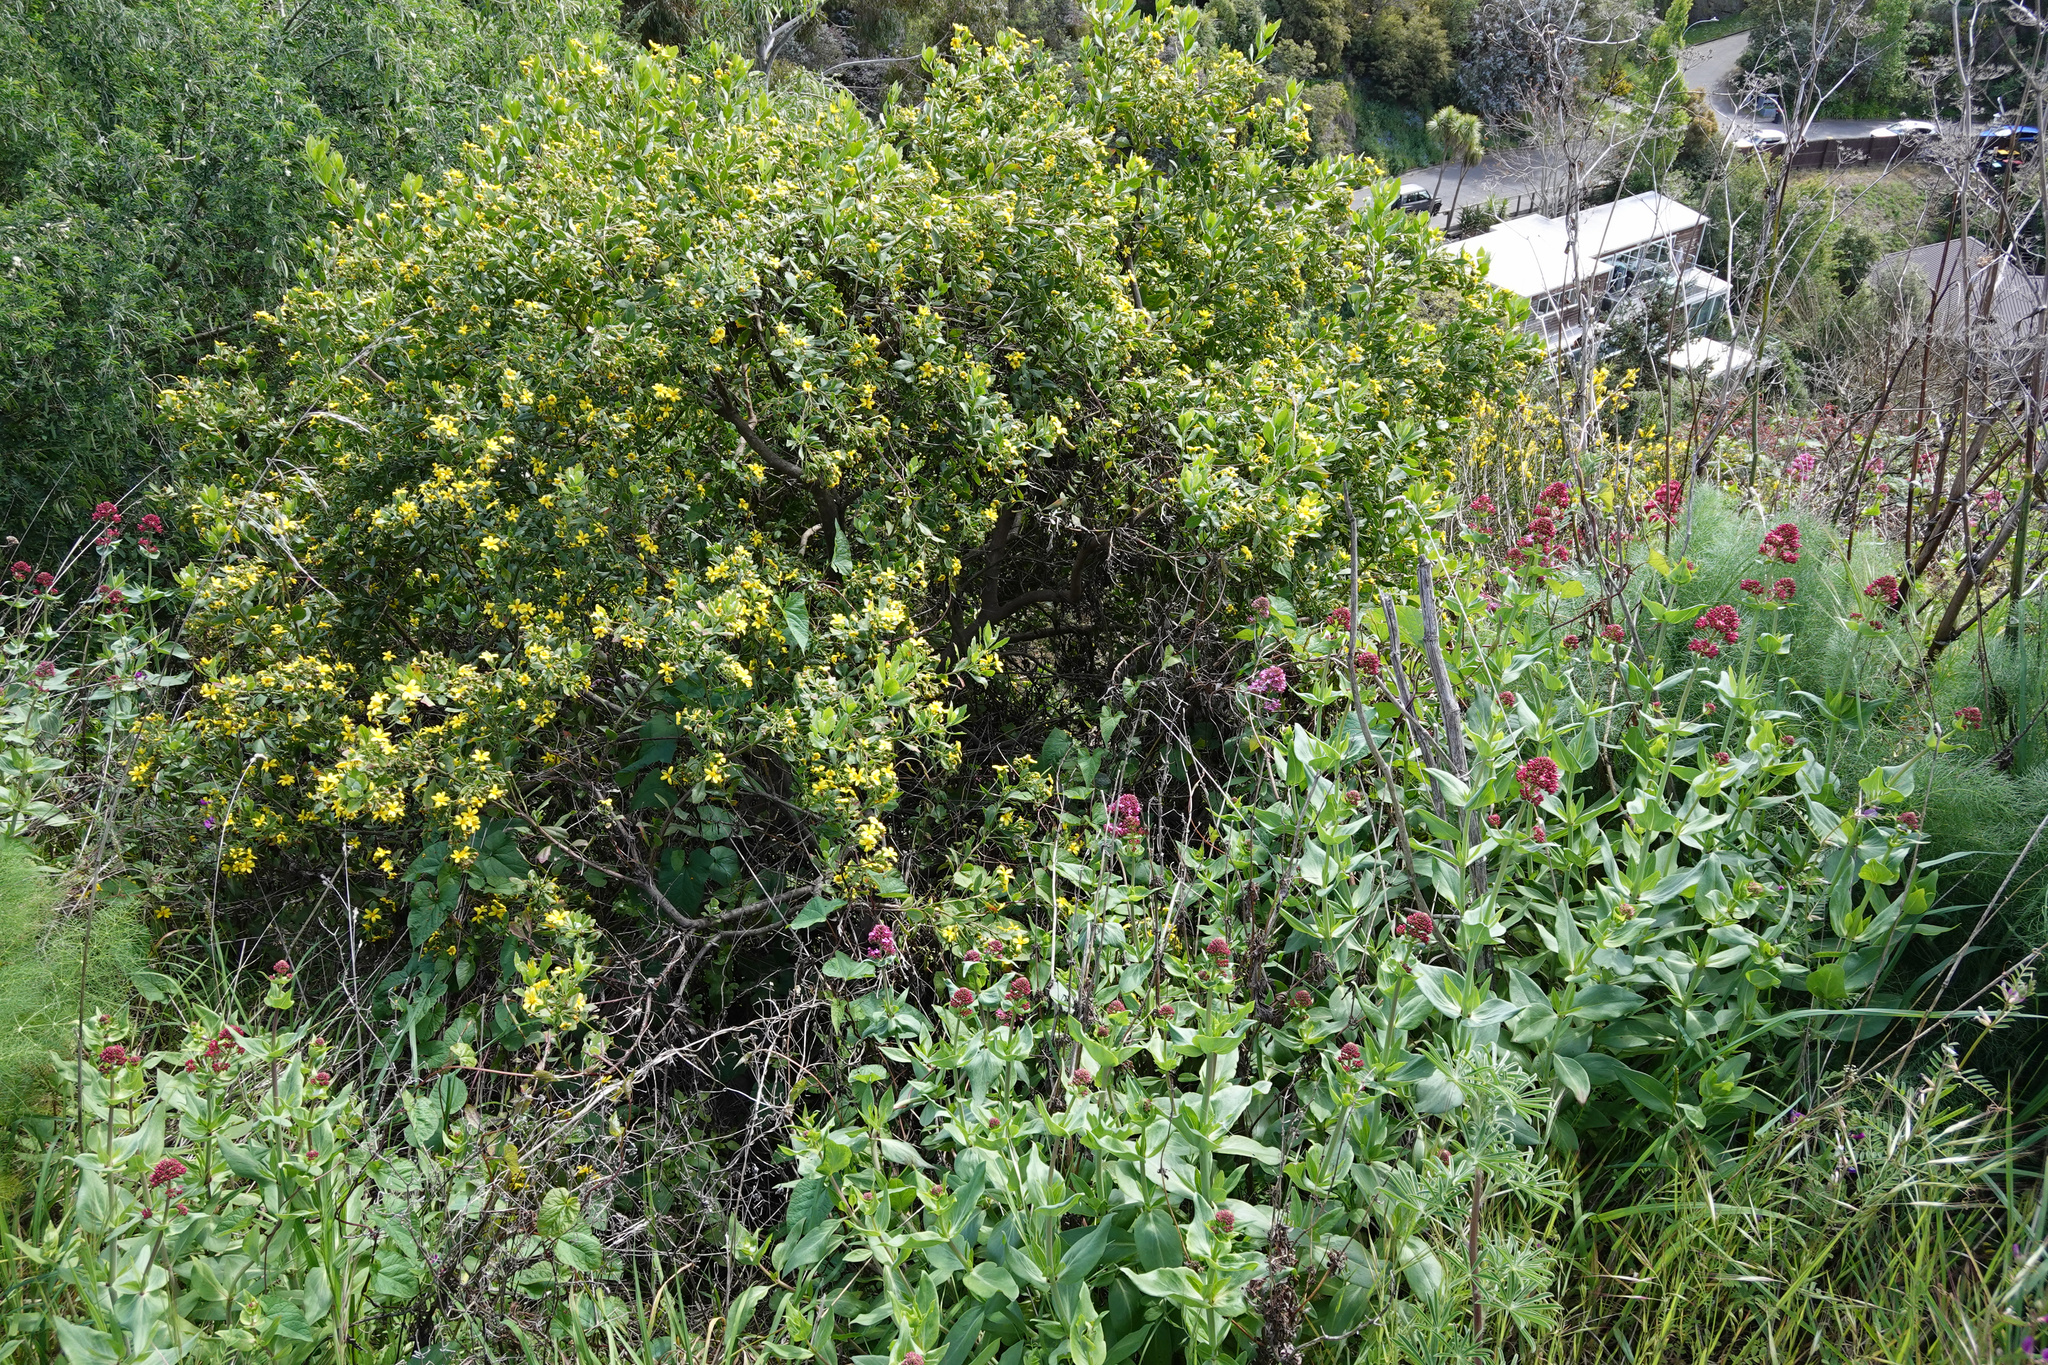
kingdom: Plantae
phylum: Tracheophyta
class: Magnoliopsida
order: Asterales
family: Asteraceae
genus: Osteospermum
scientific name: Osteospermum moniliferum
